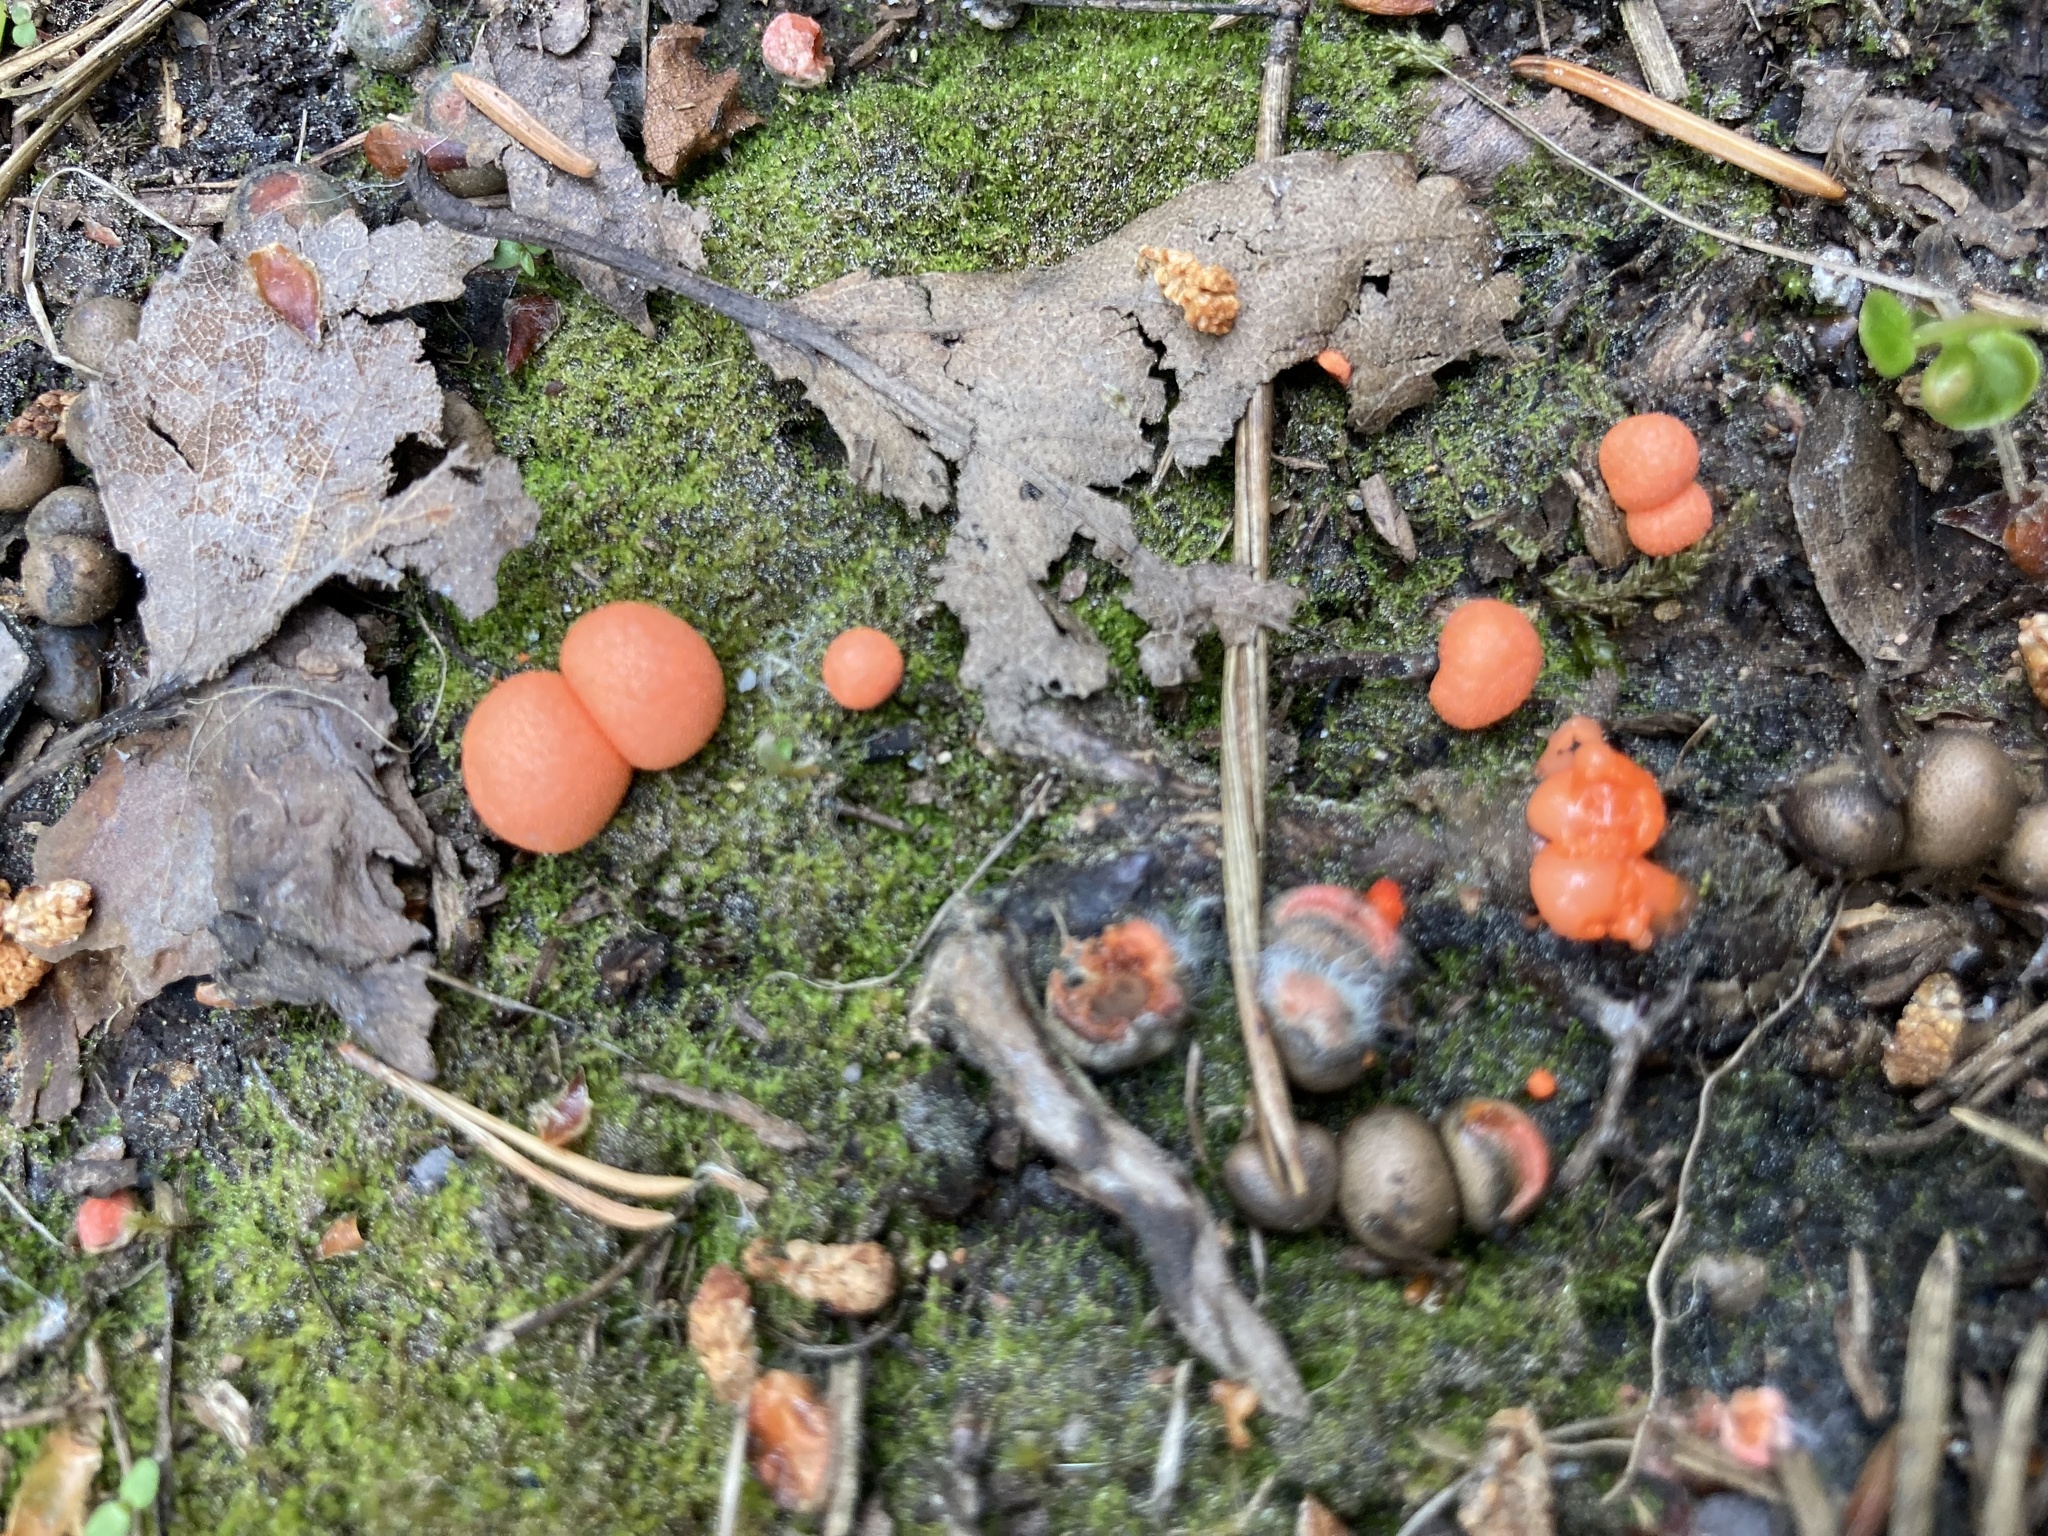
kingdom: Protozoa
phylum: Mycetozoa
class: Myxomycetes
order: Cribrariales
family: Tubiferaceae
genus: Lycogala
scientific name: Lycogala epidendrum
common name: Wolf's milk
